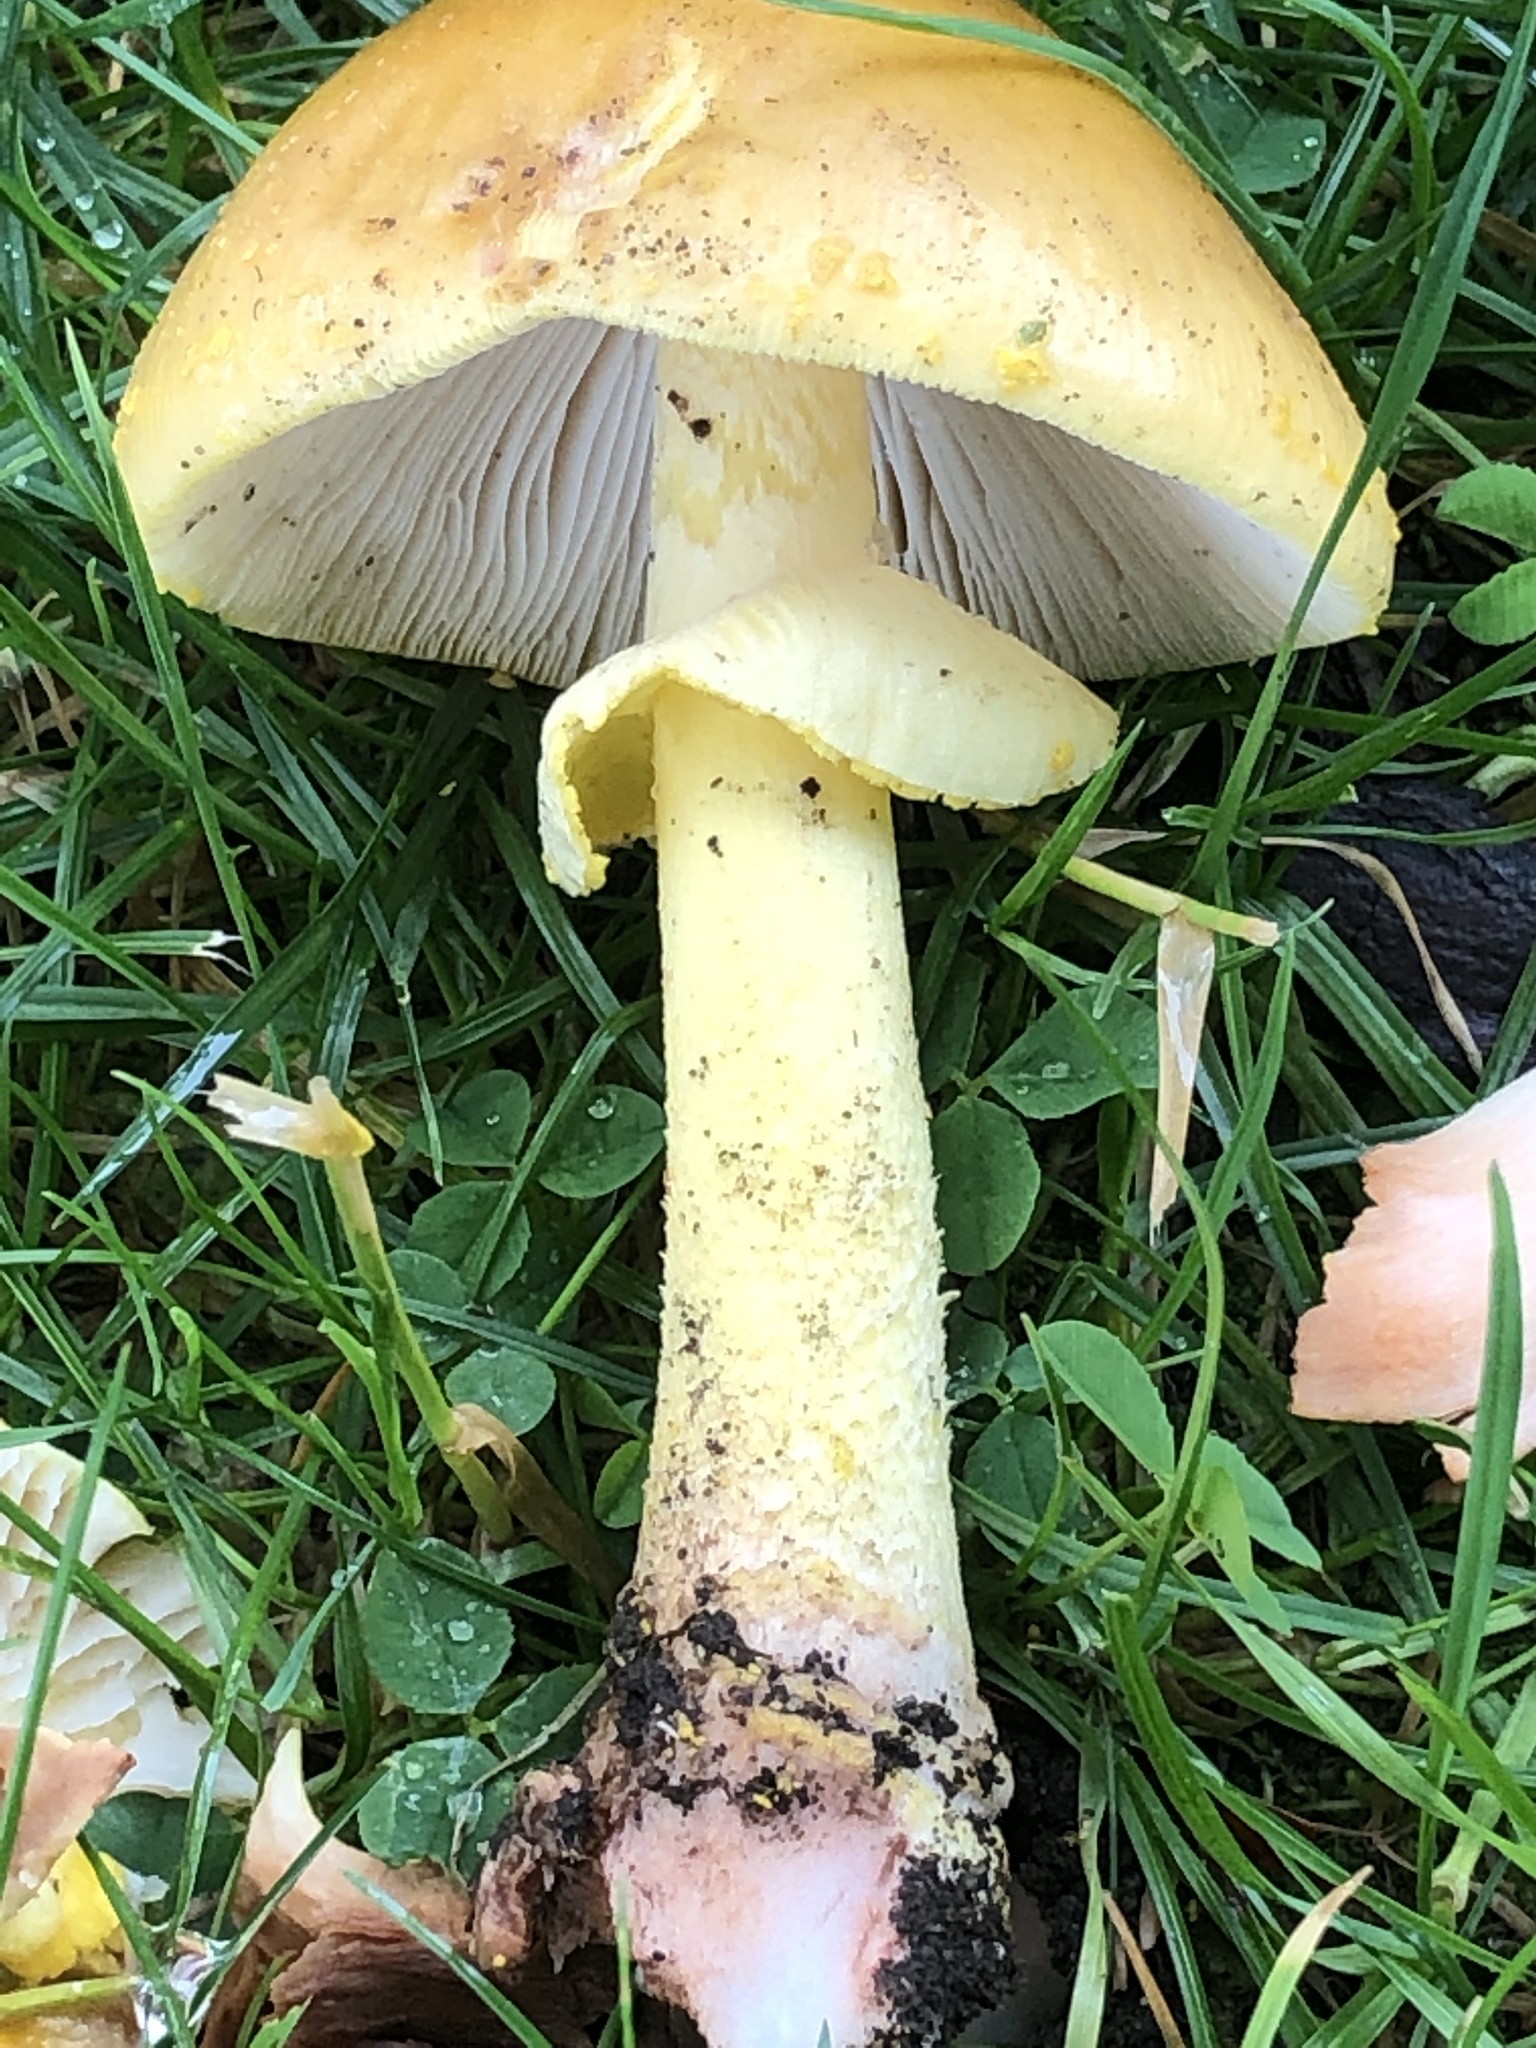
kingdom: Fungi
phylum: Basidiomycota
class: Agaricomycetes
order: Agaricales
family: Amanitaceae
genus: Amanita
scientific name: Amanita flavorubens
